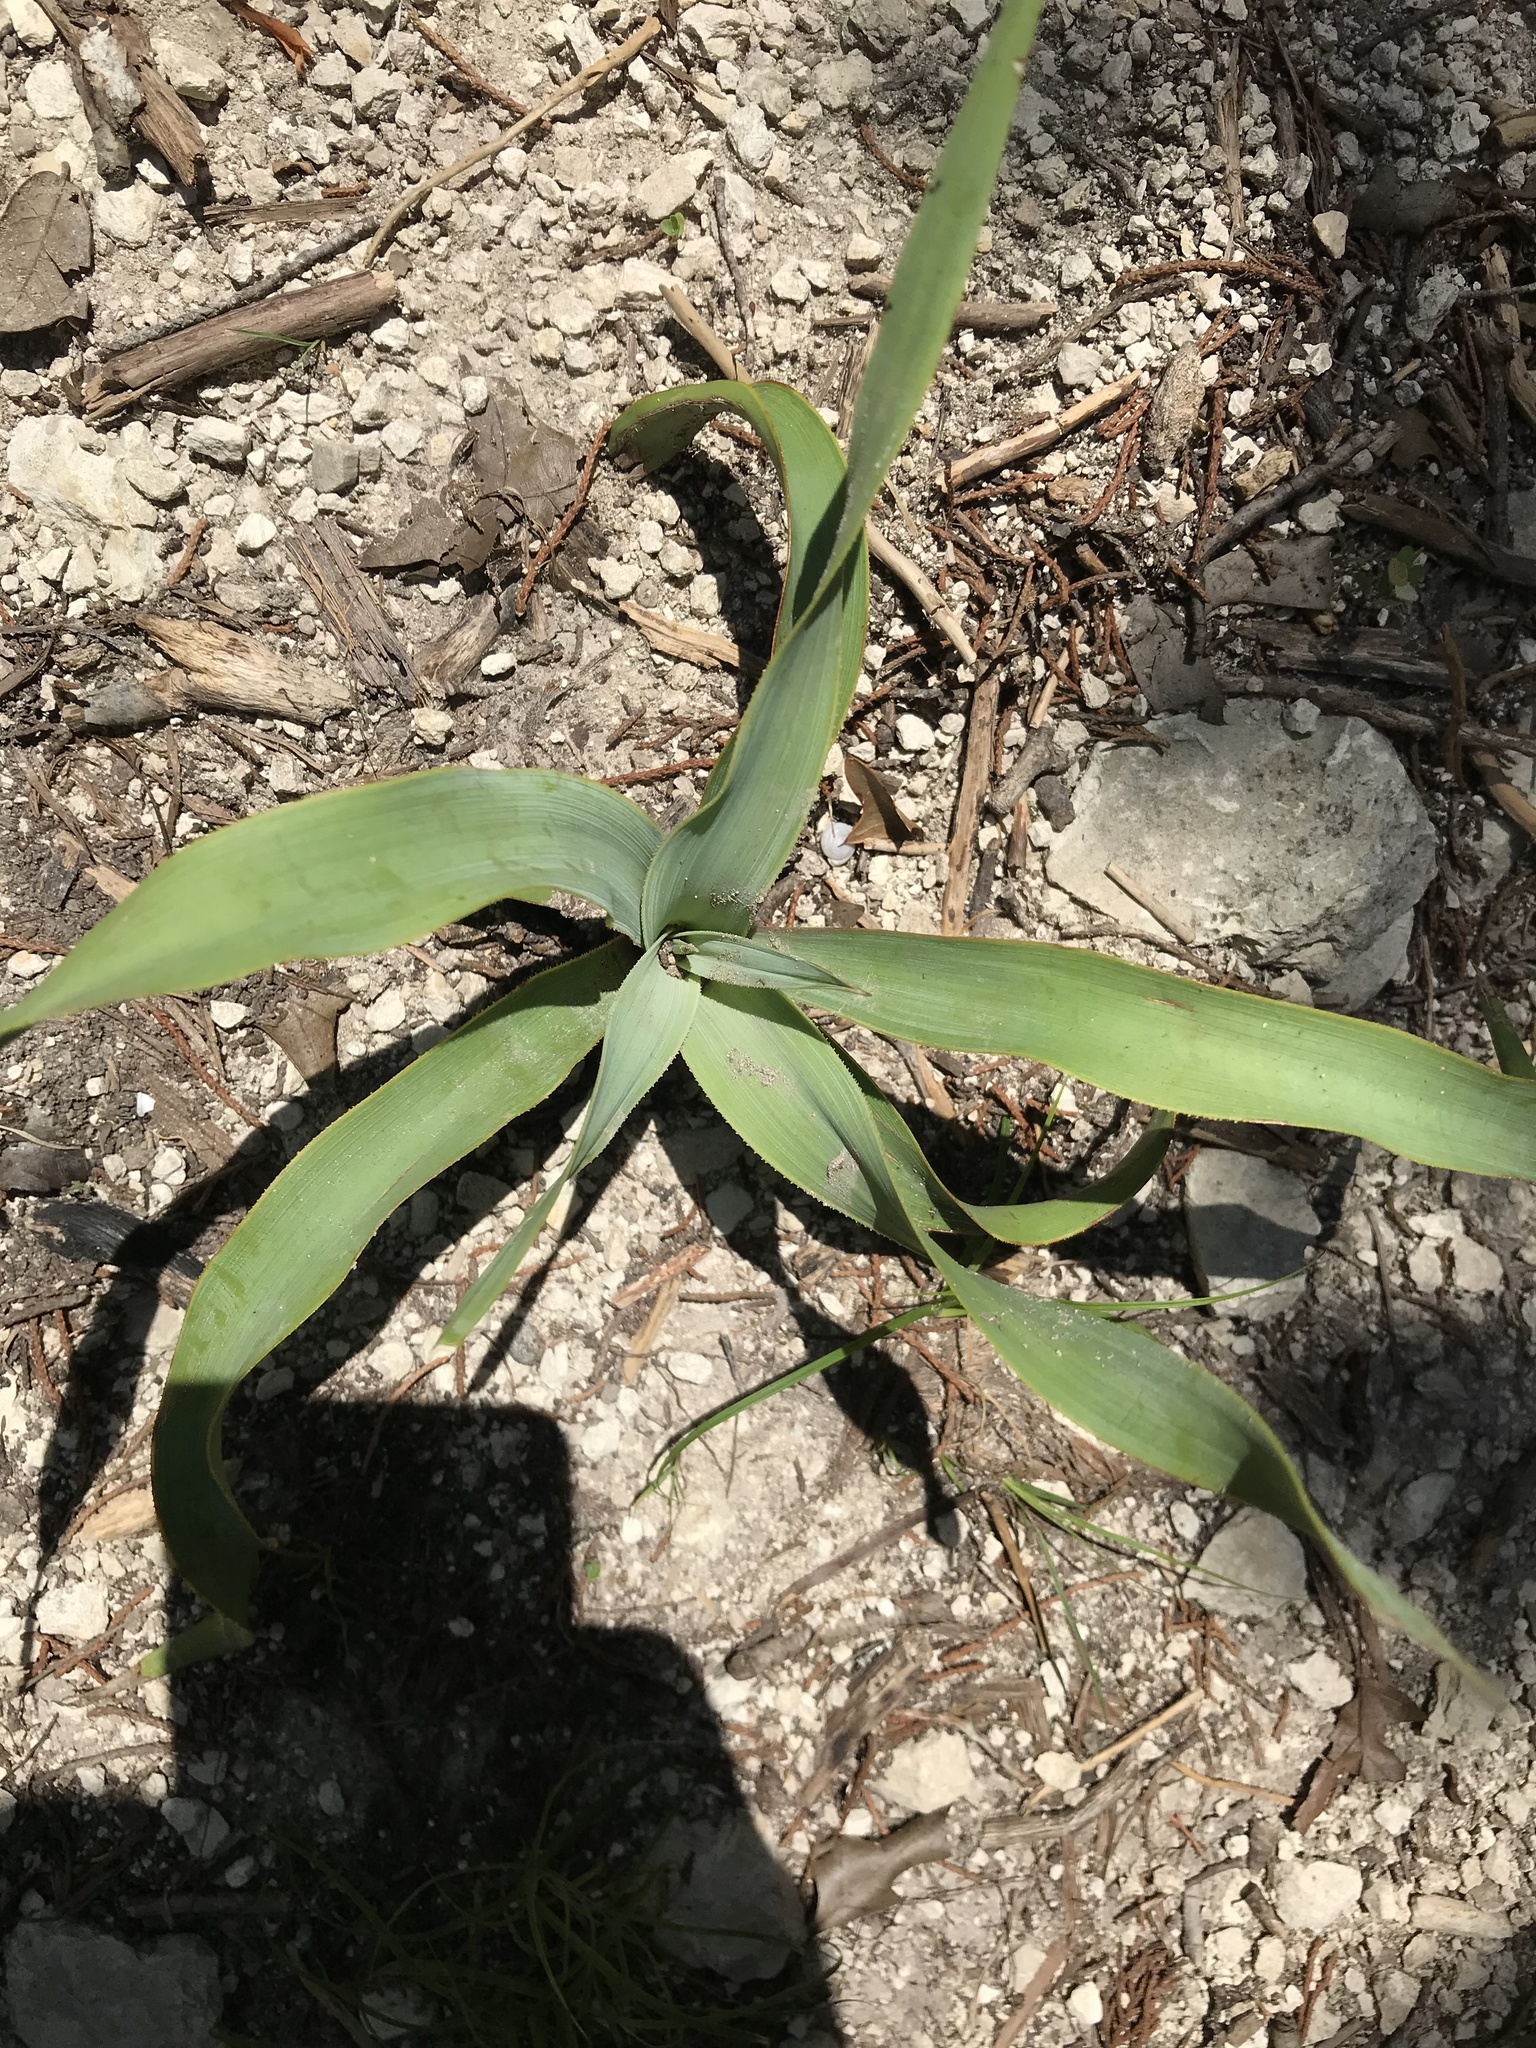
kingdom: Plantae
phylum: Tracheophyta
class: Liliopsida
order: Asparagales
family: Asparagaceae
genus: Yucca
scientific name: Yucca rupicola
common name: Twisted-leaf spanish-dagger
